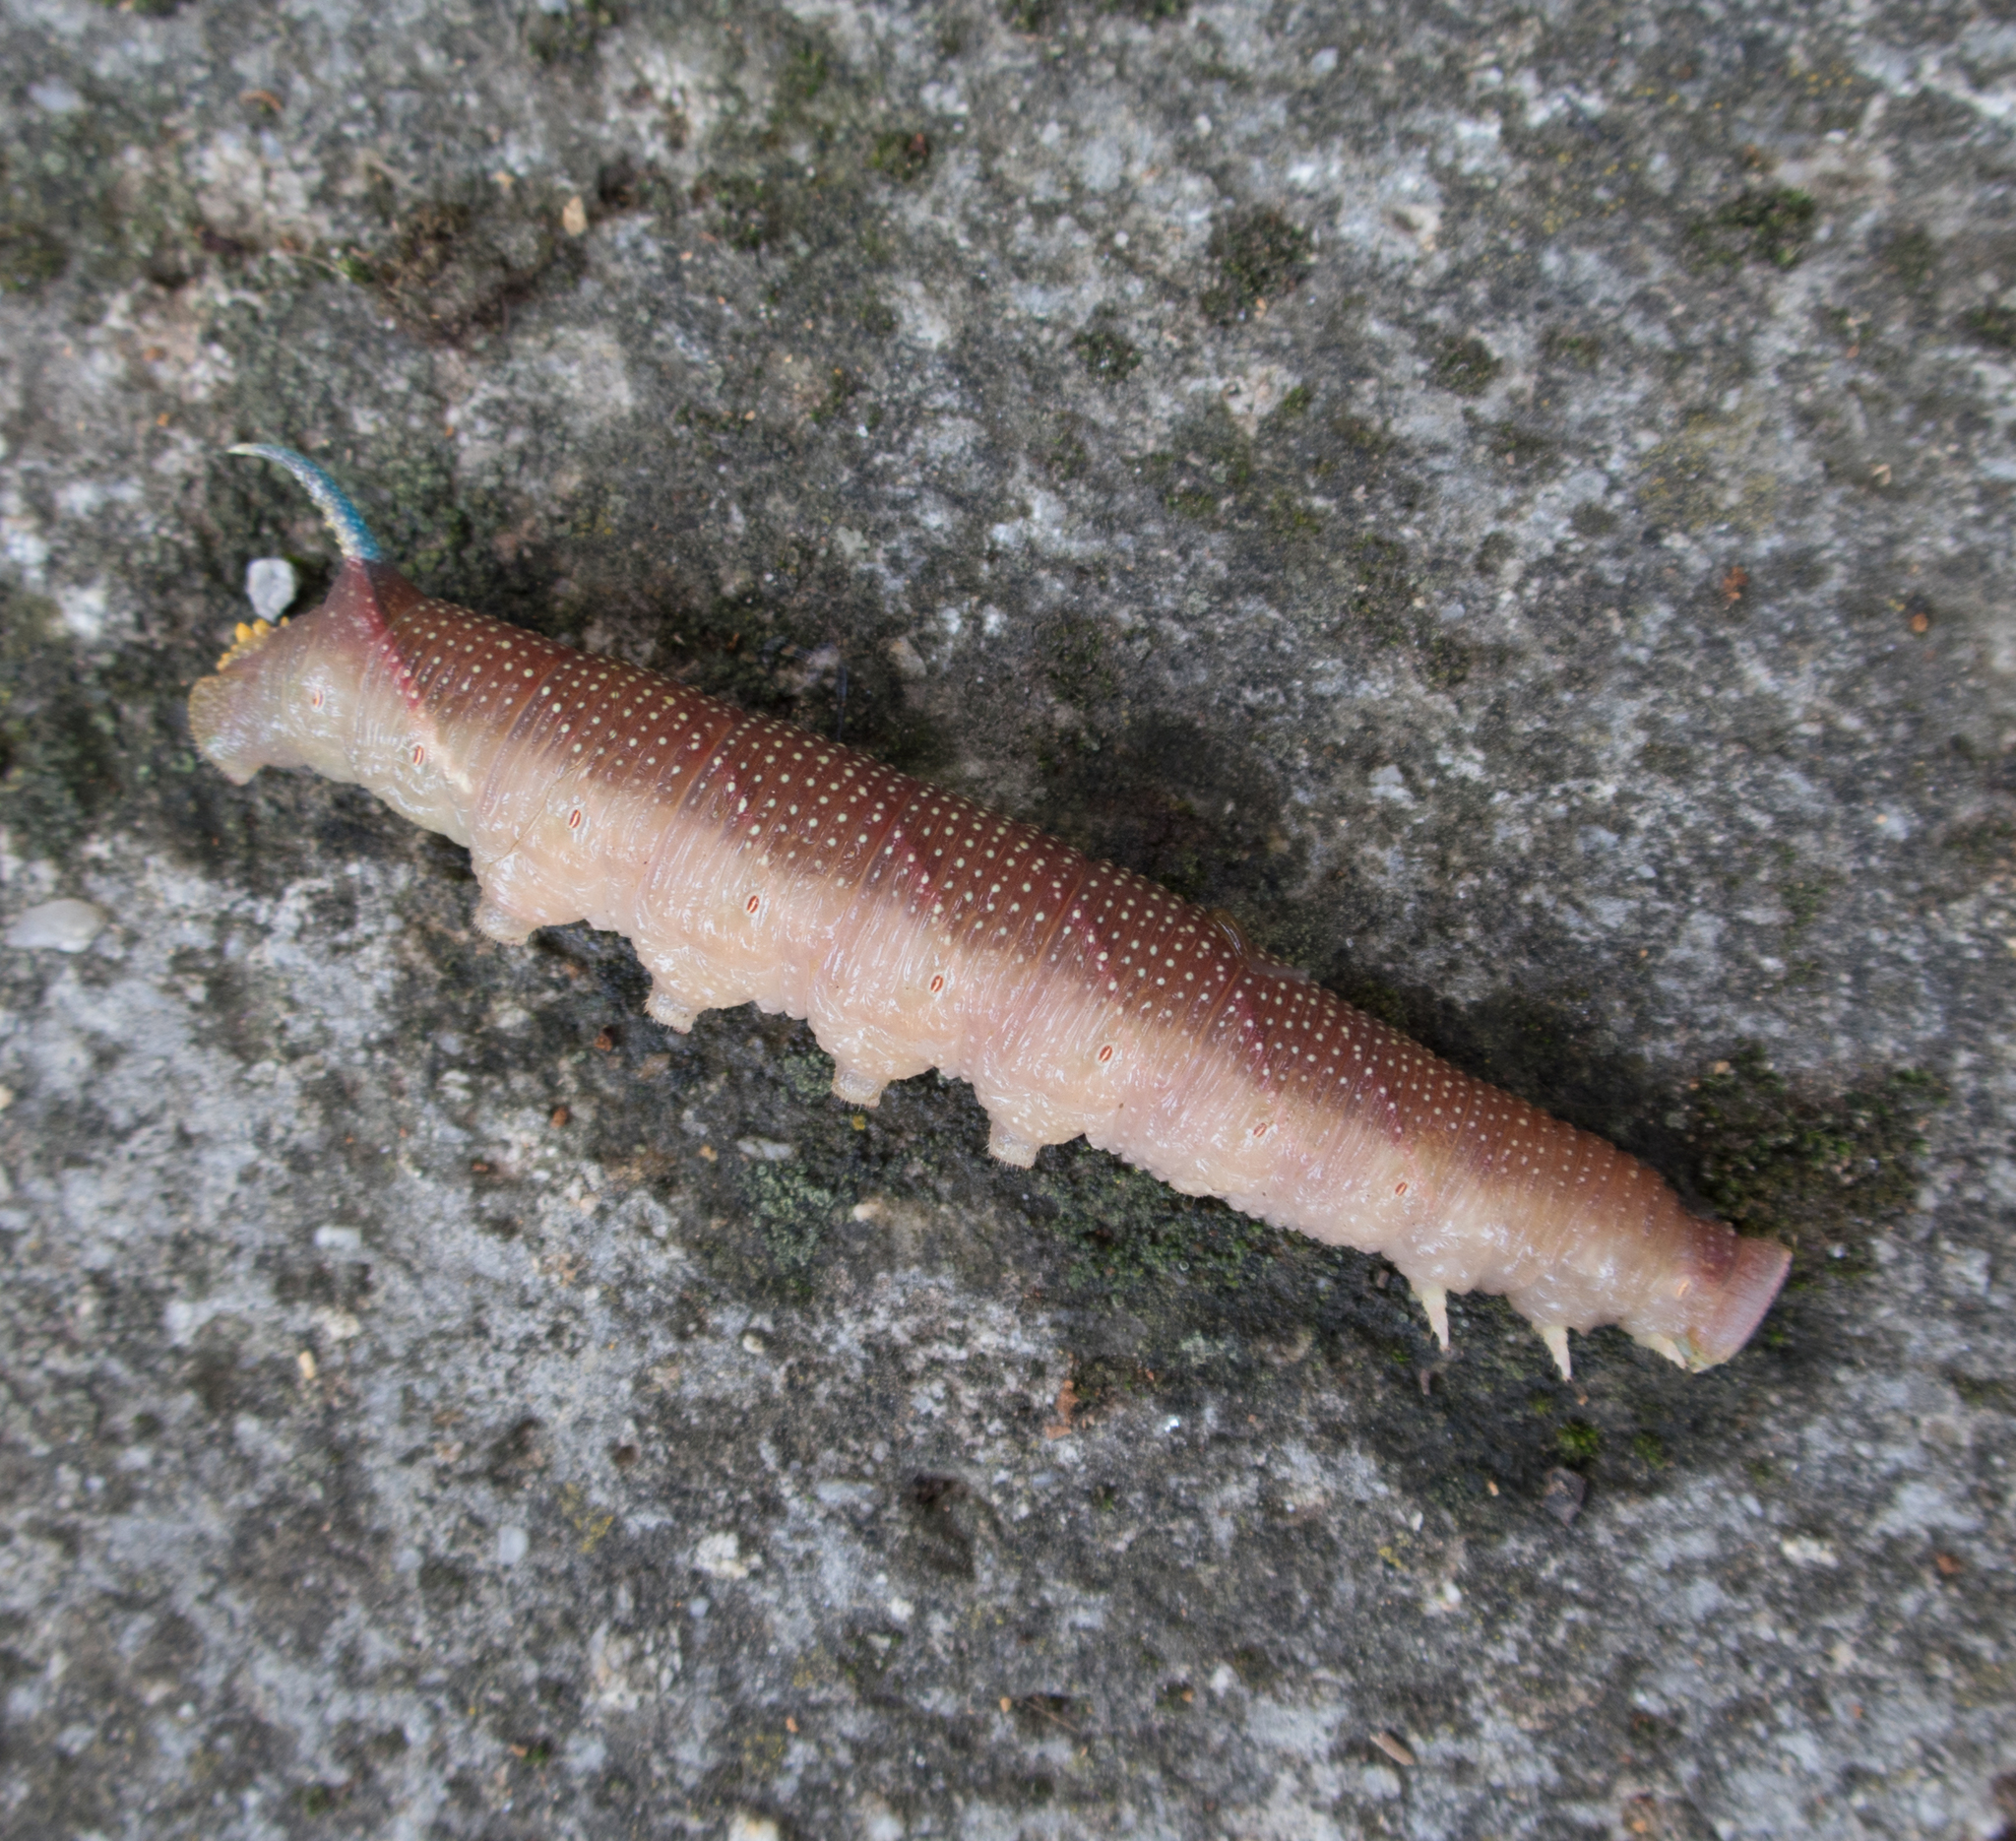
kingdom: Animalia
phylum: Arthropoda
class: Insecta
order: Lepidoptera
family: Sphingidae
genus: Mimas
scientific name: Mimas tiliae
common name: Lime hawk-moth
